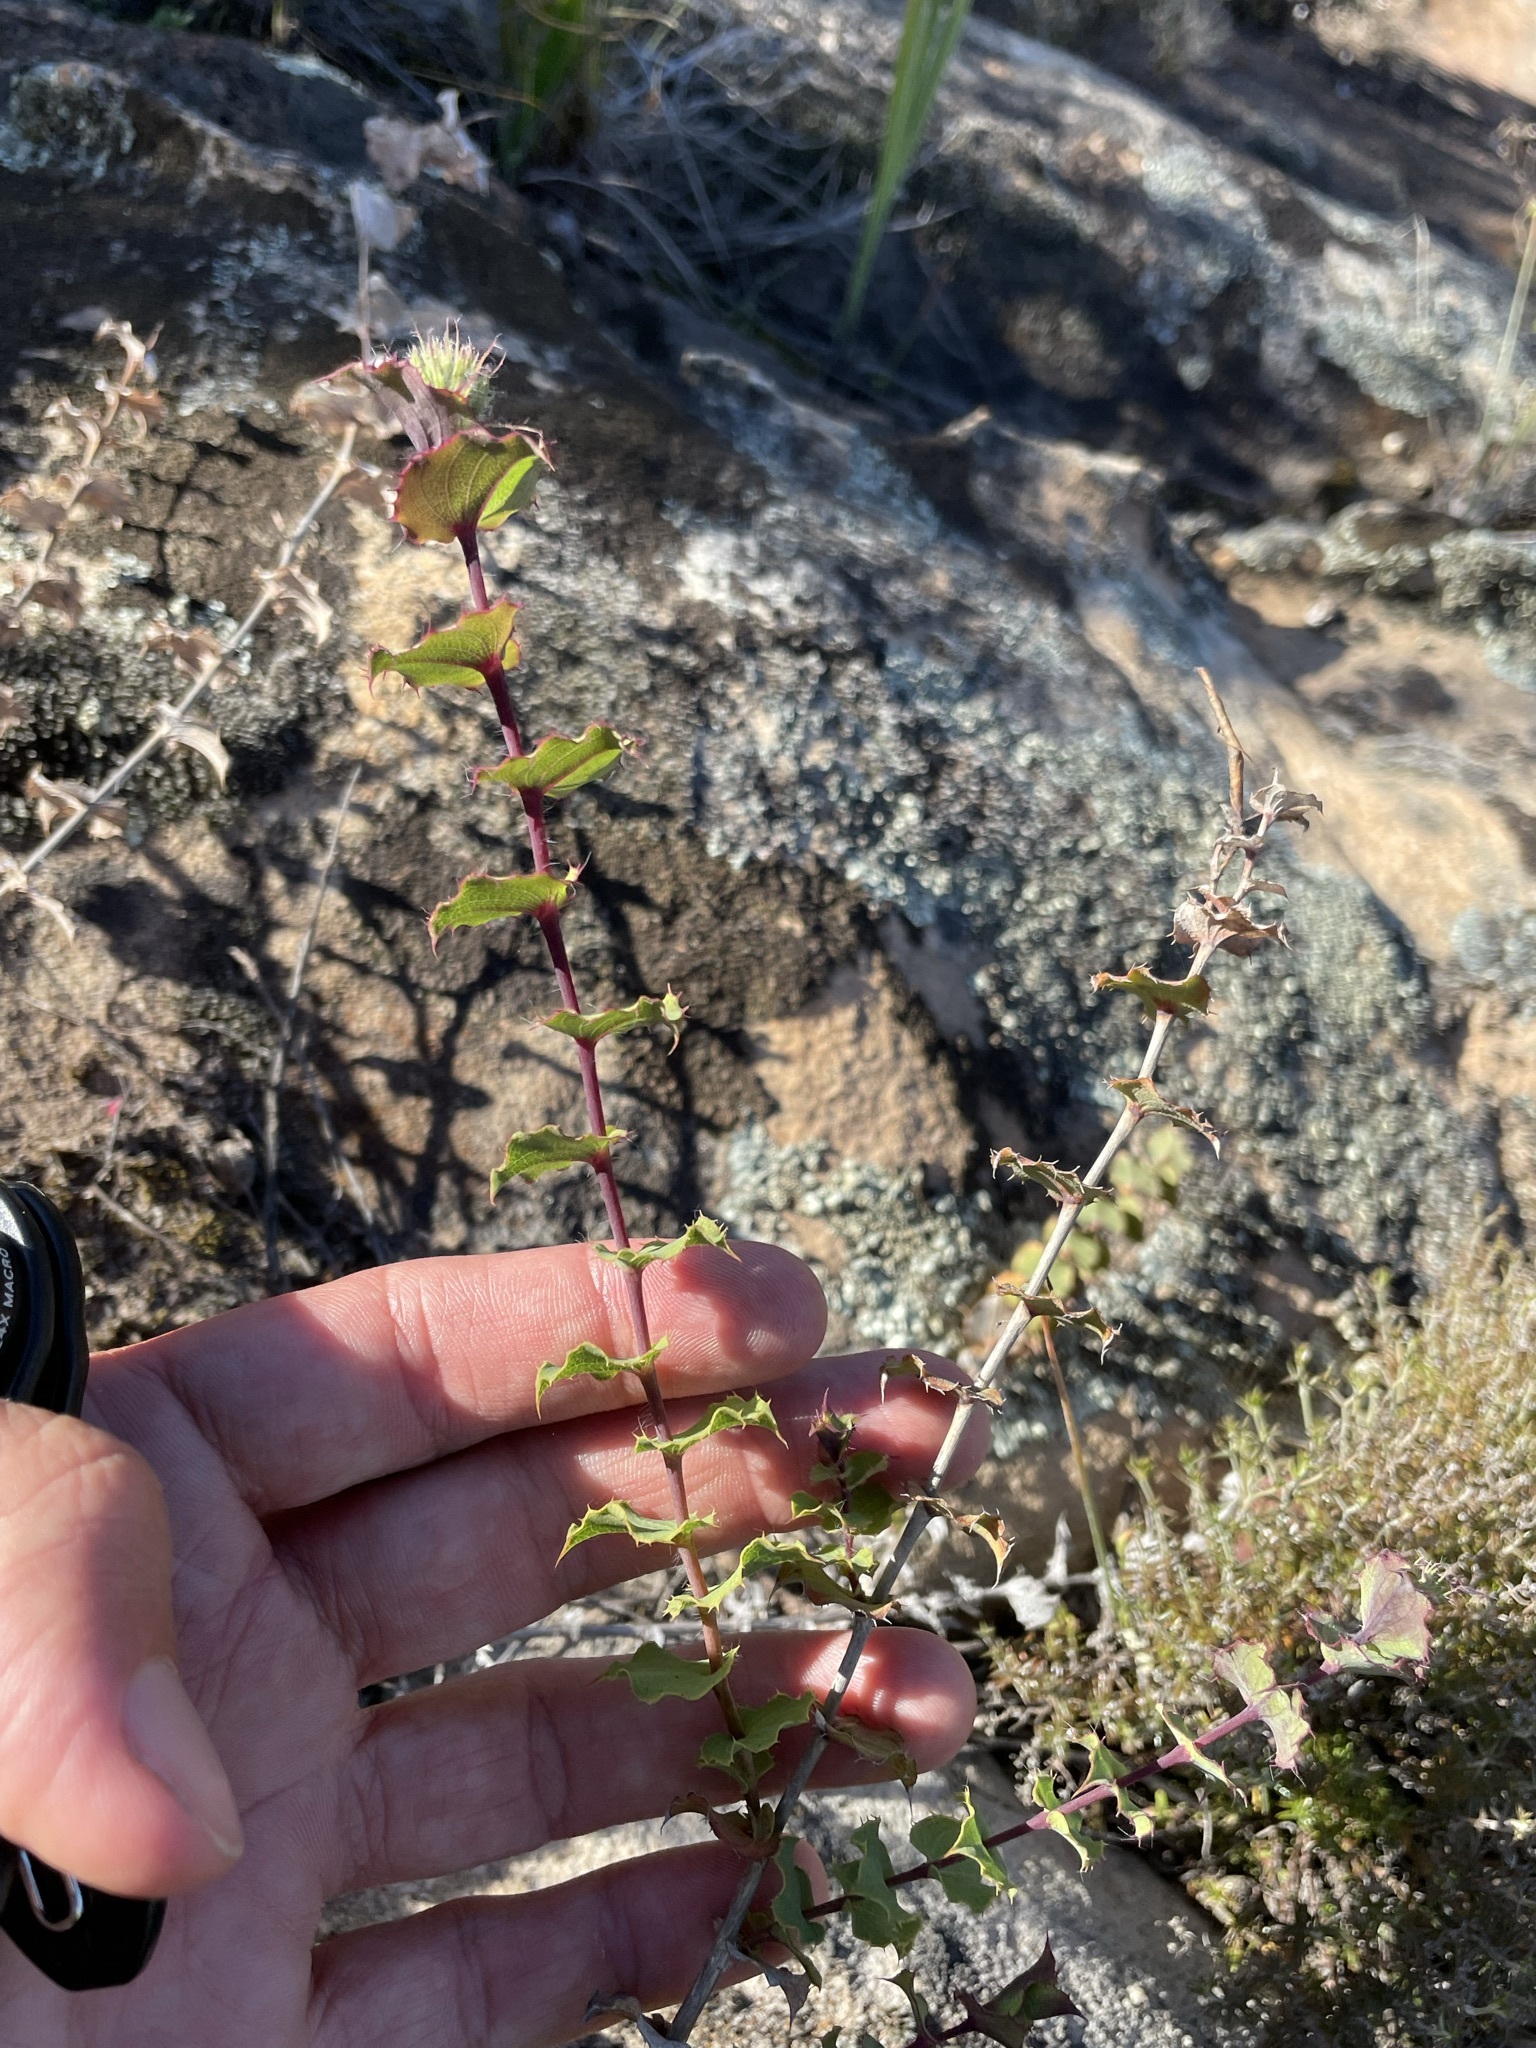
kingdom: Plantae
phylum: Tracheophyta
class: Magnoliopsida
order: Fabales
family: Fabaceae
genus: Aspalathus
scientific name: Aspalathus perfoliata
